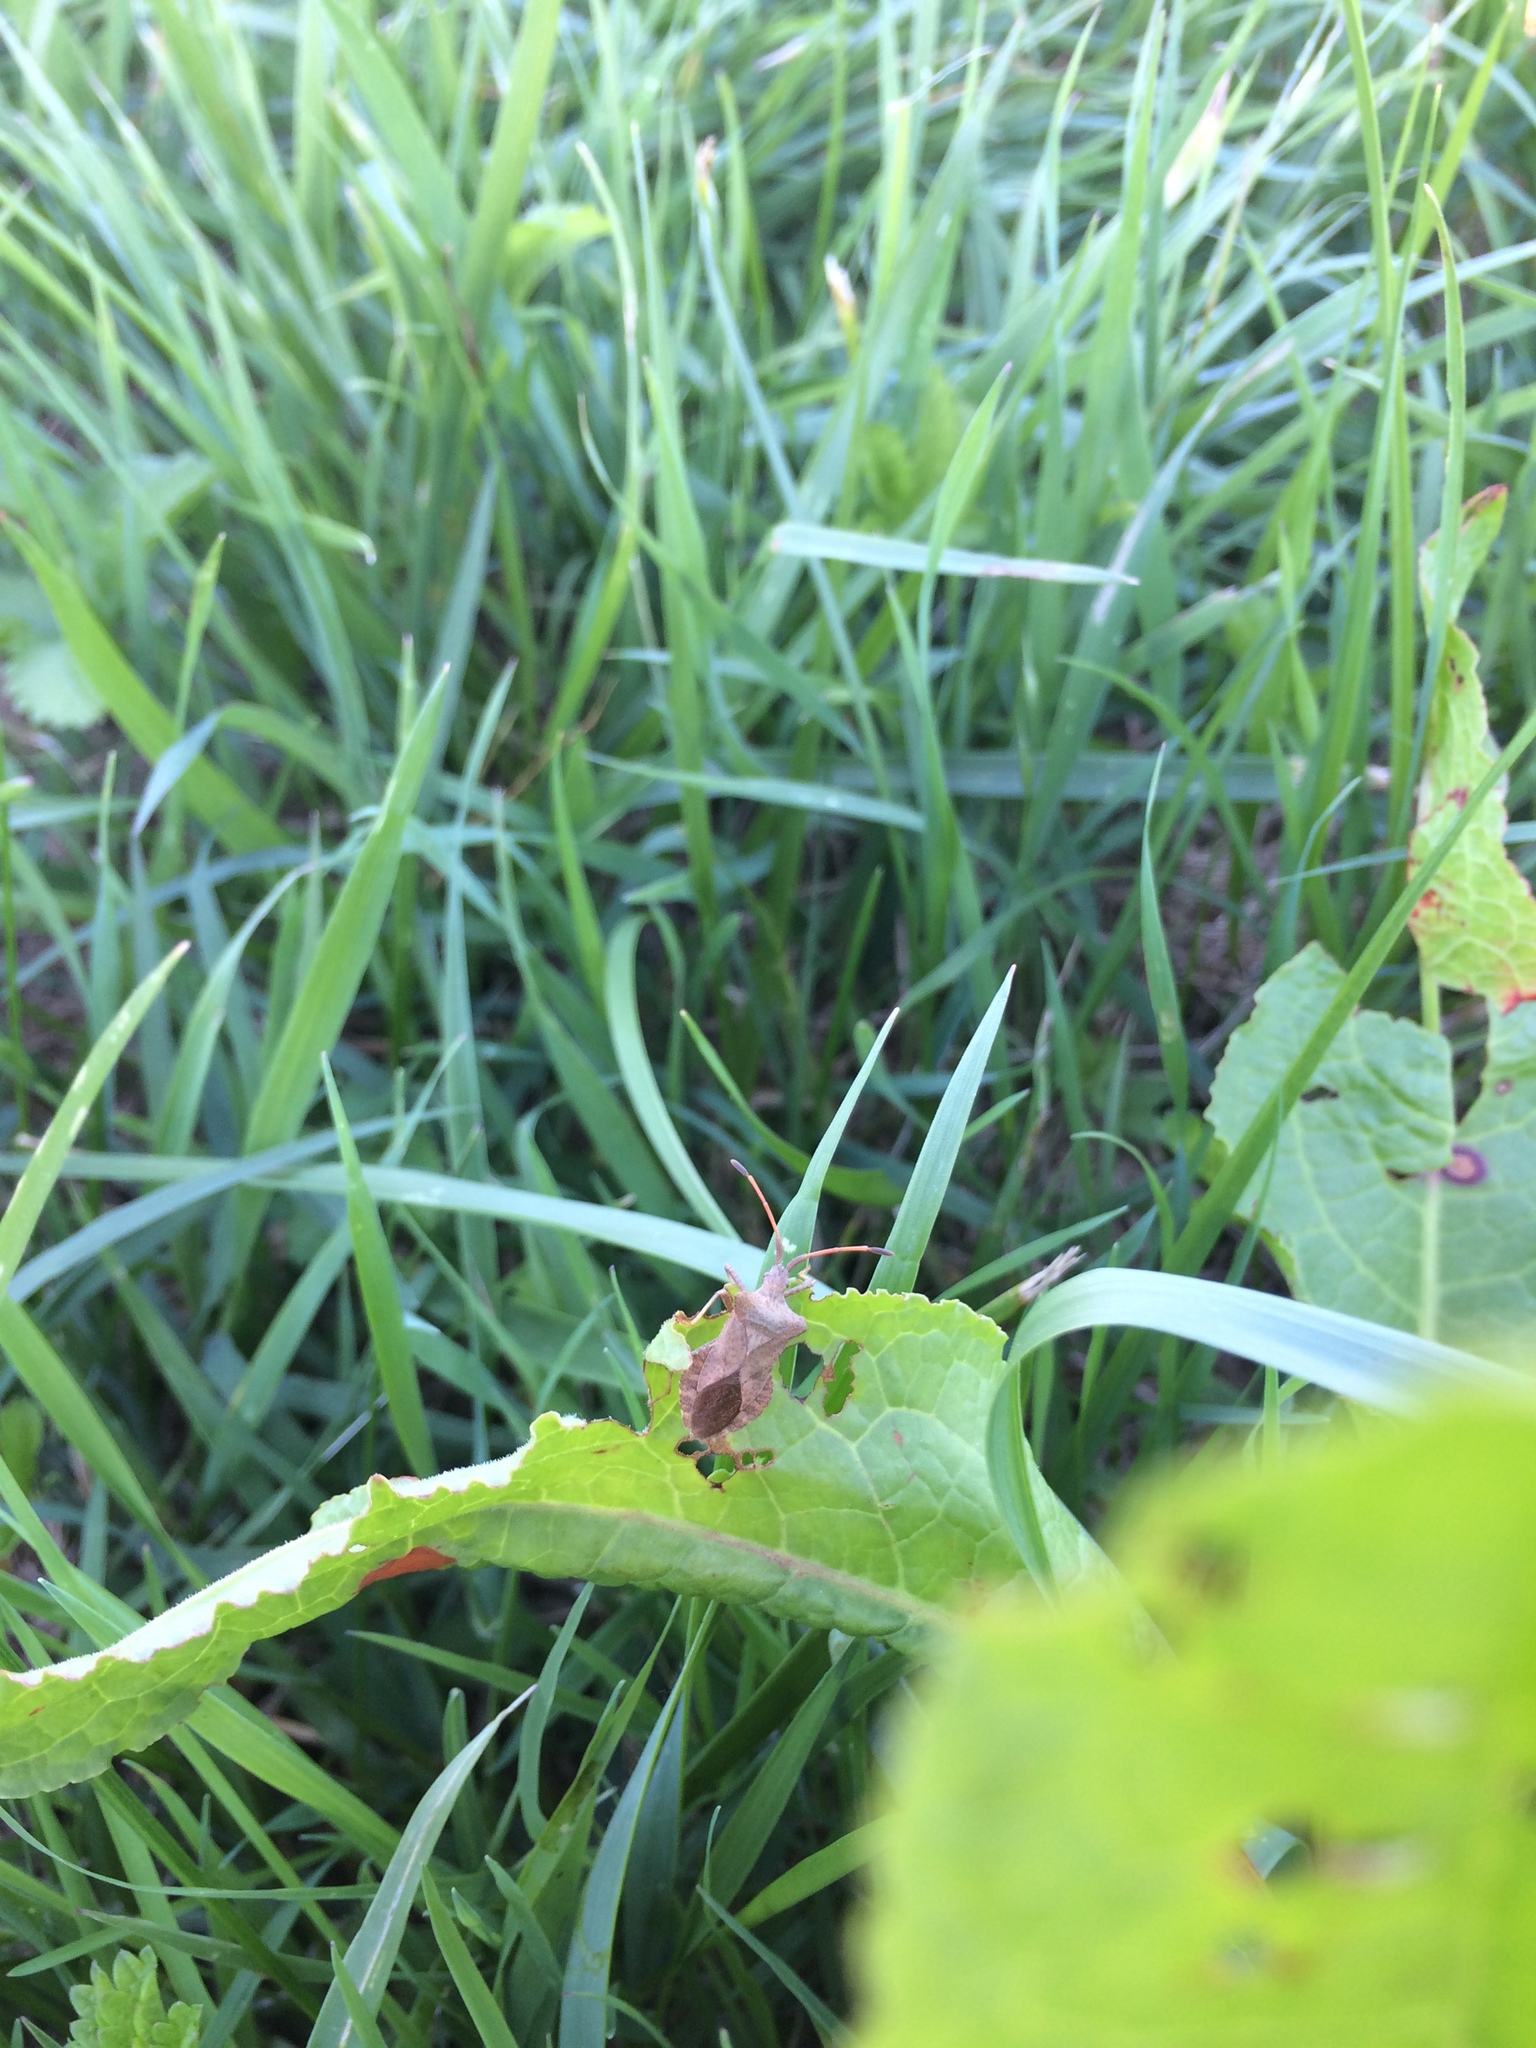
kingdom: Animalia
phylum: Arthropoda
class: Insecta
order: Hemiptera
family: Coreidae
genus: Coreus
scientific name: Coreus marginatus
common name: Dock bug
